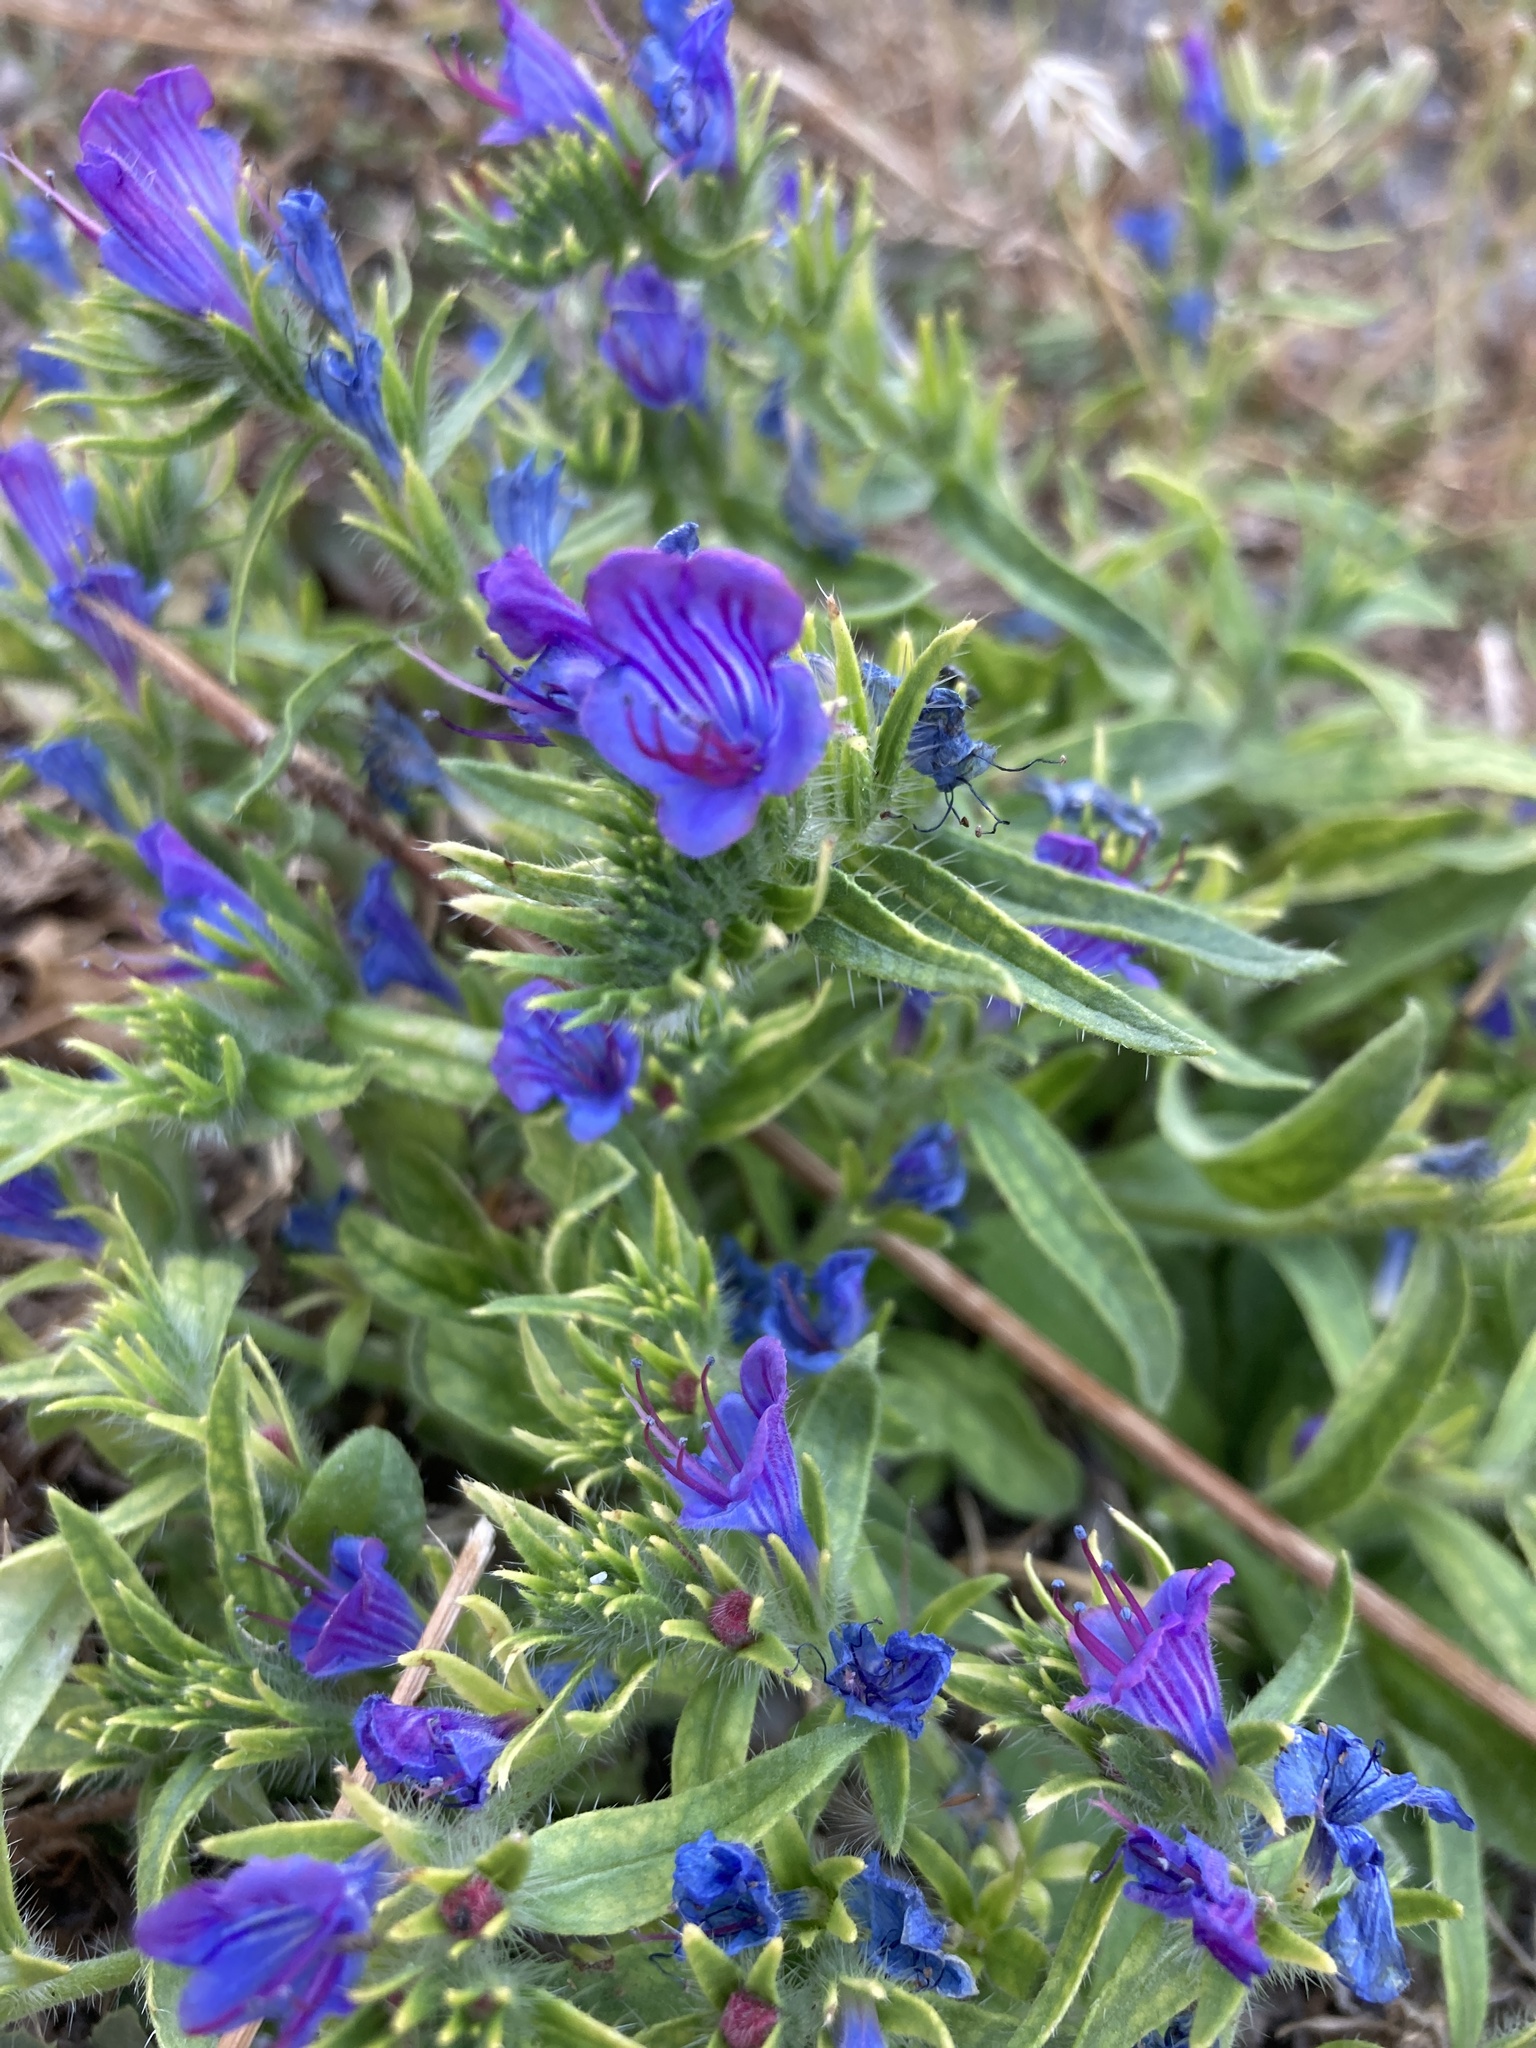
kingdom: Plantae
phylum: Tracheophyta
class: Magnoliopsida
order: Boraginales
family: Boraginaceae
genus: Echium
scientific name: Echium vulgare
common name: Common viper's bugloss
